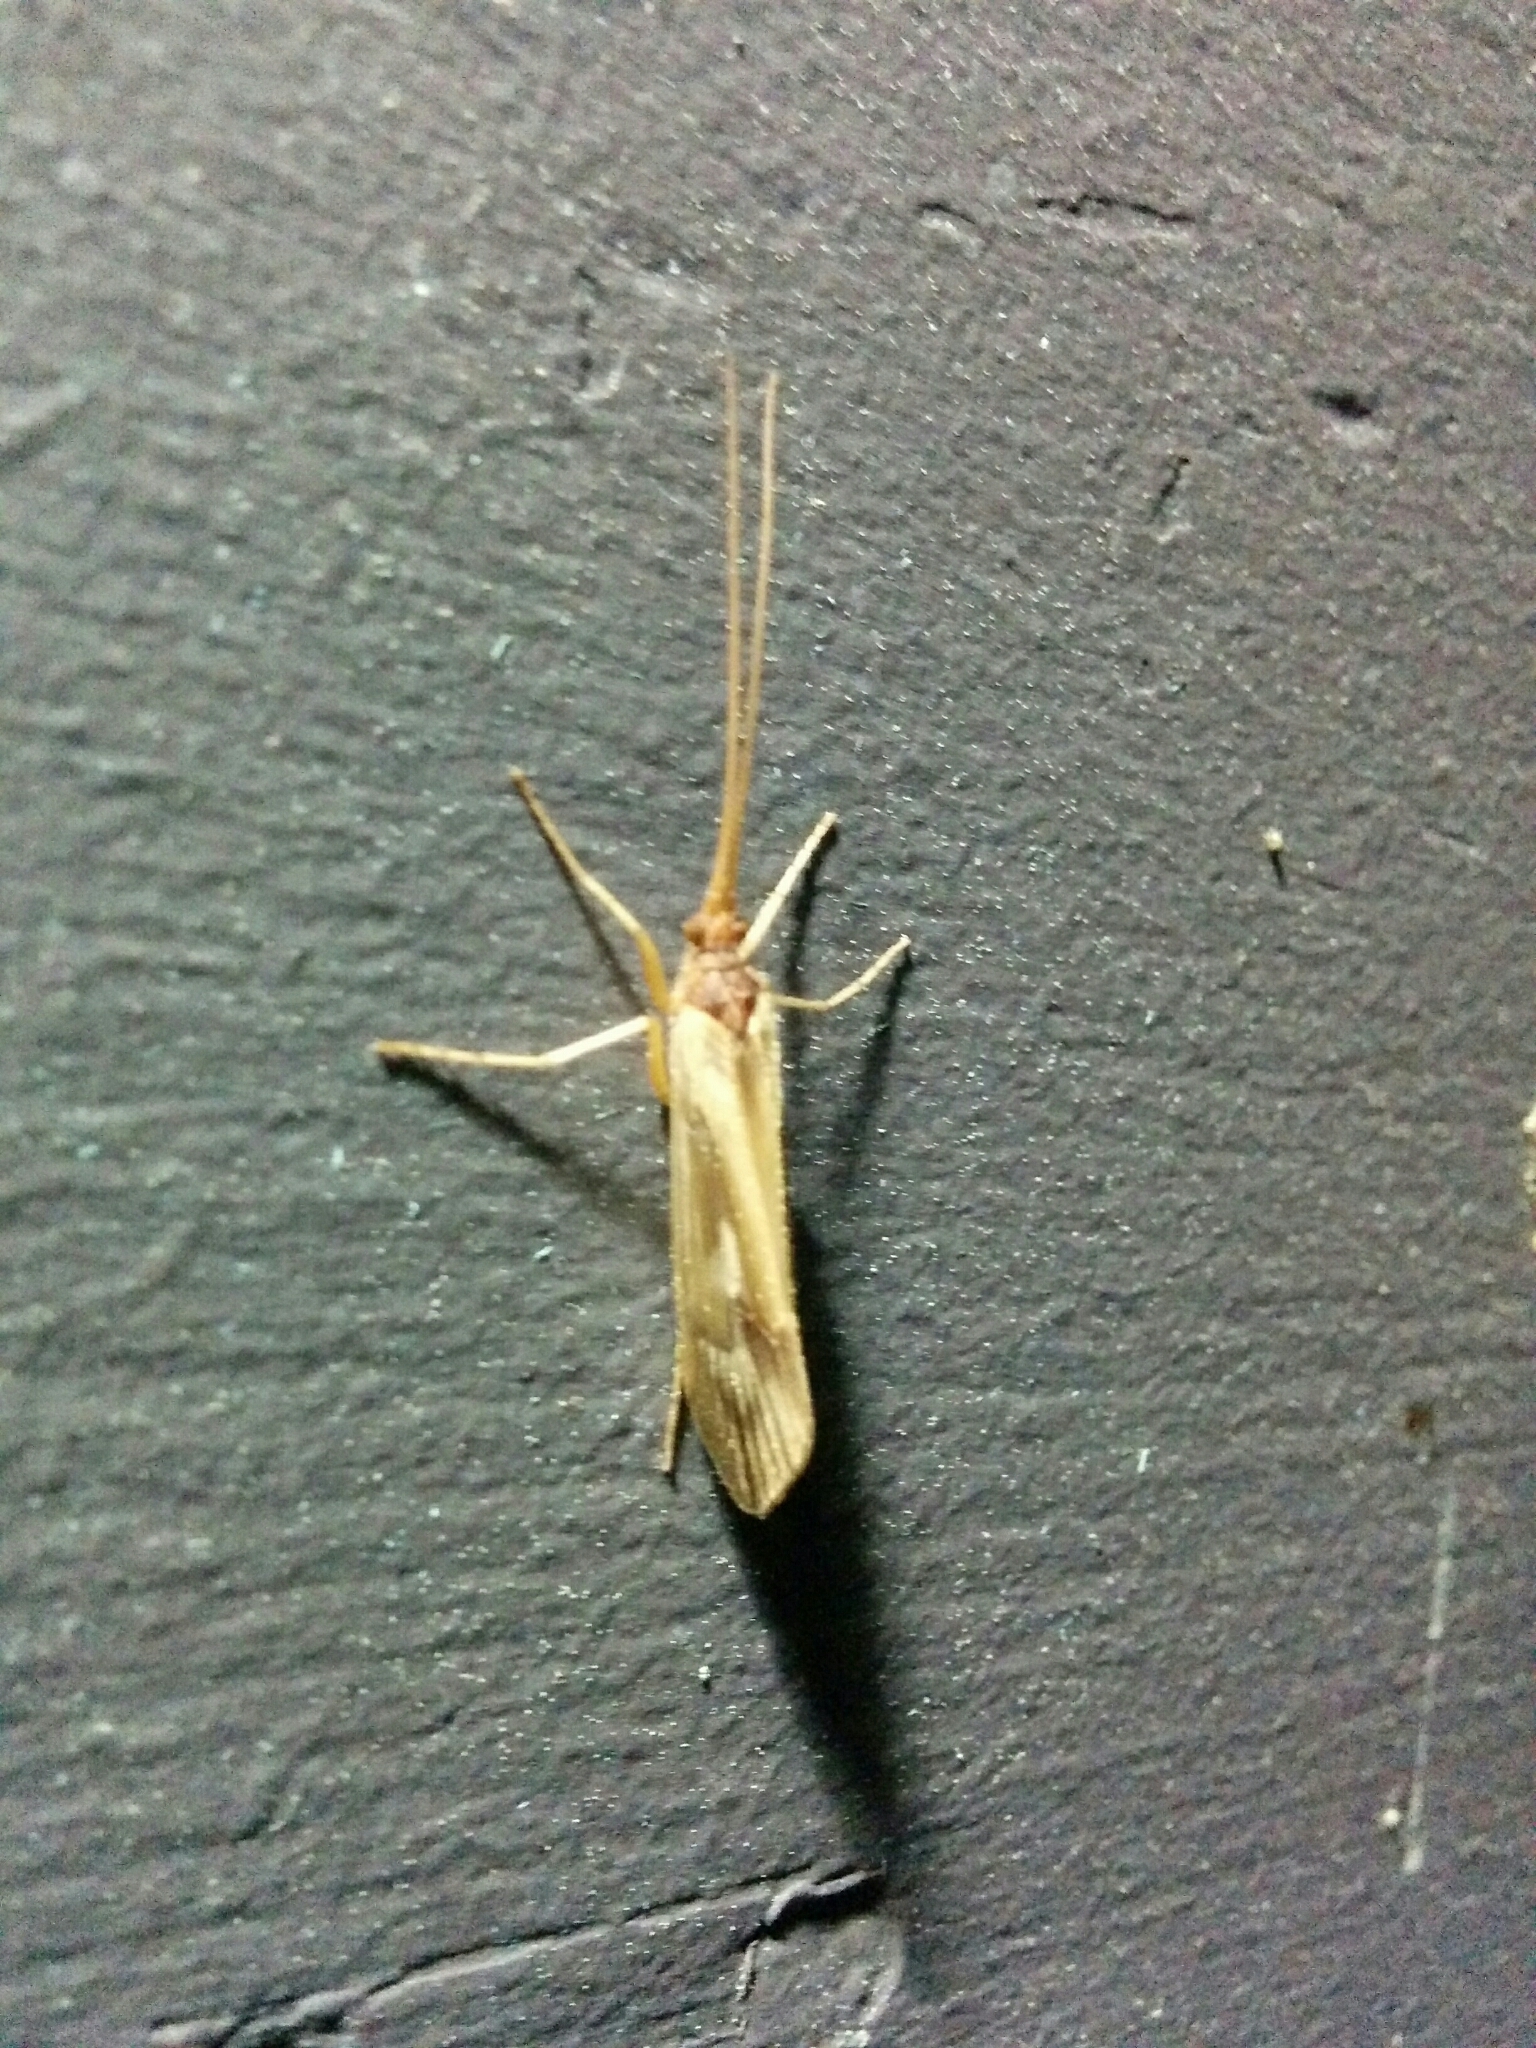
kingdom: Animalia
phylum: Arthropoda
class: Insecta
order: Trichoptera
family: Limnephilidae
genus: Platycentropus
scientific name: Platycentropus radiatus
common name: Chocolate-and-cream sedge
